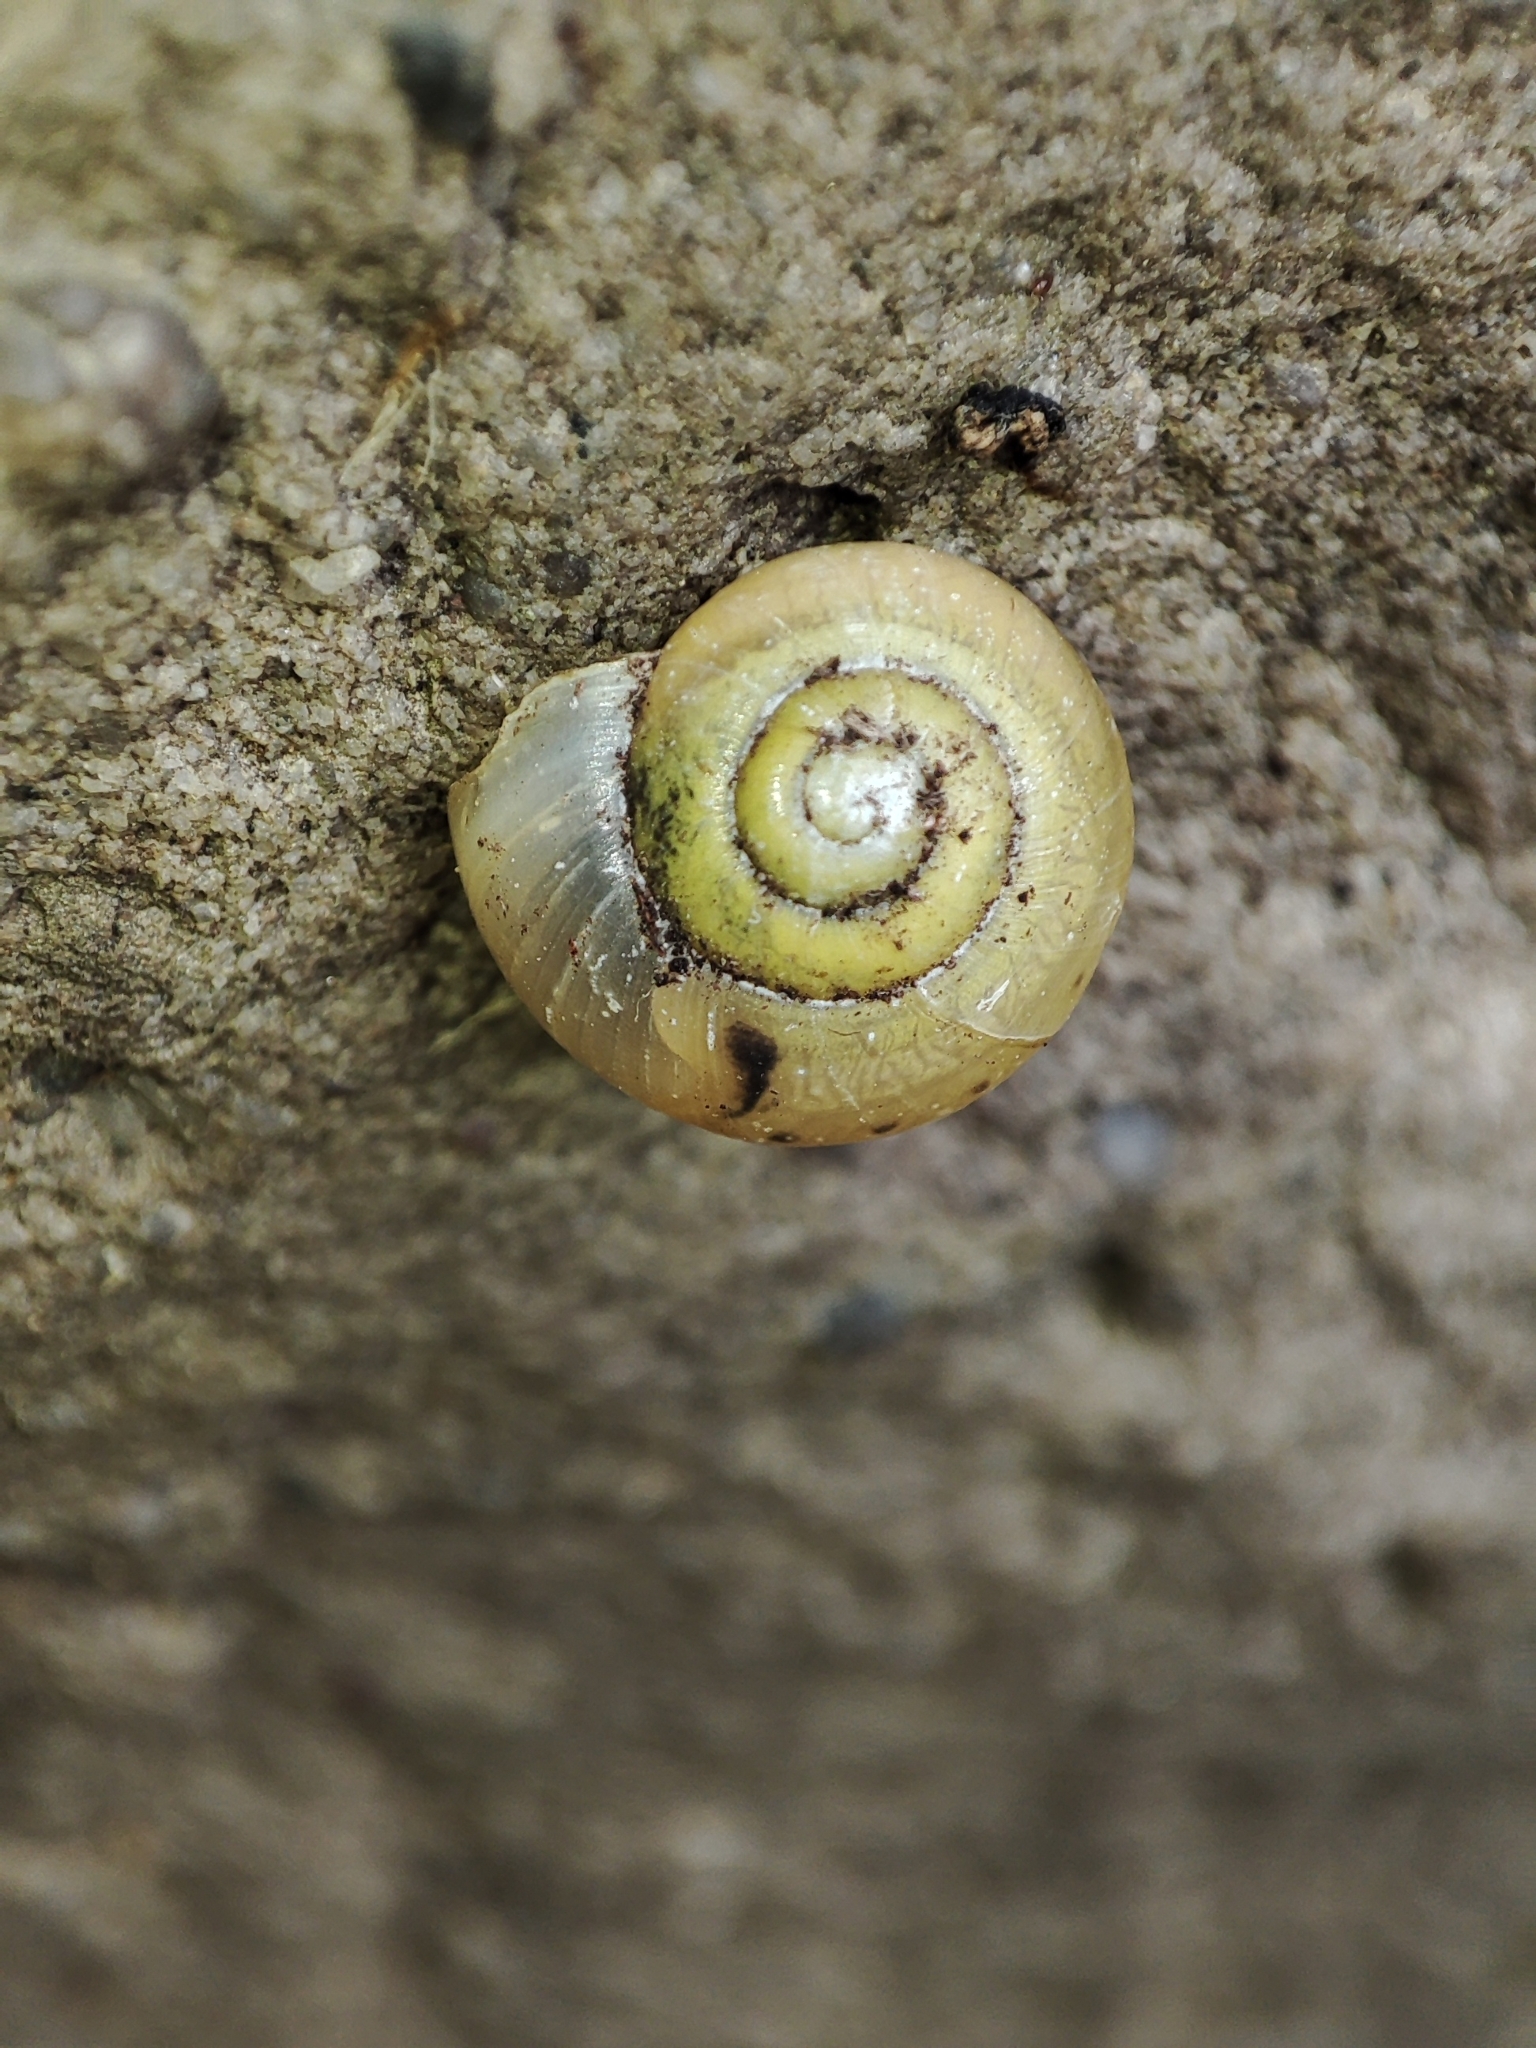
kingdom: Animalia
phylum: Mollusca
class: Gastropoda
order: Stylommatophora
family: Camaenidae
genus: Fruticicola
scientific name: Fruticicola fruticum
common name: Bush snail
